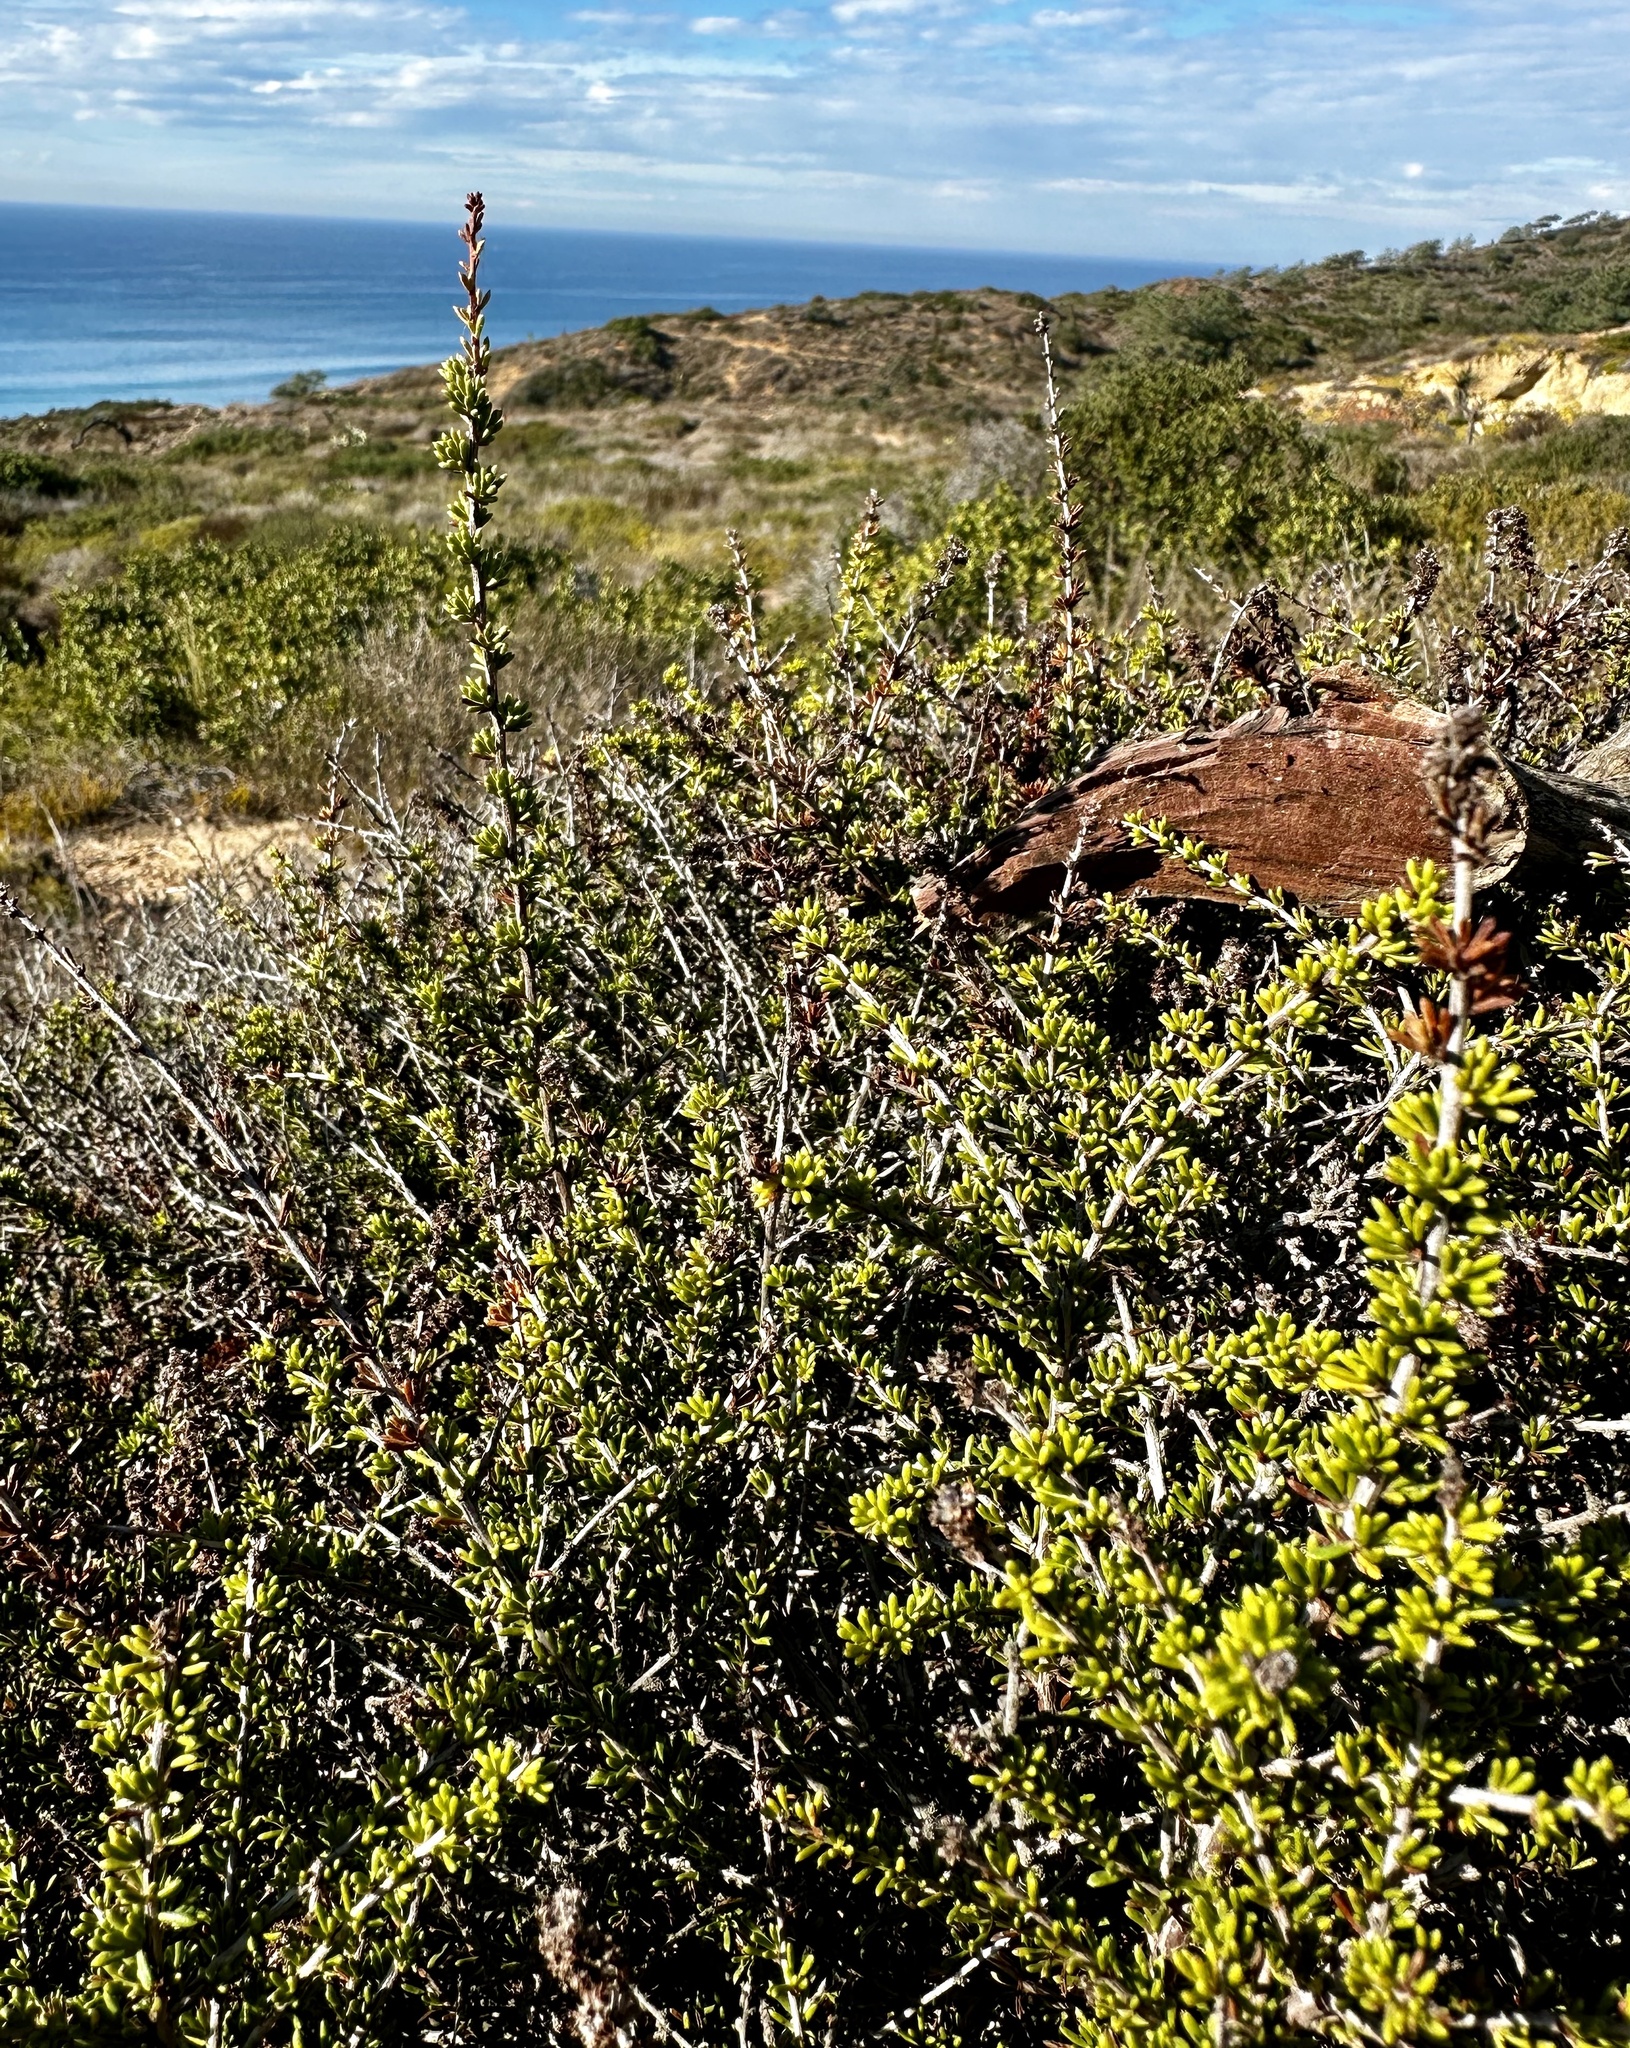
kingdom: Plantae
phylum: Tracheophyta
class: Magnoliopsida
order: Rosales
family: Rosaceae
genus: Adenostoma
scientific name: Adenostoma fasciculatum
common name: Chamise
